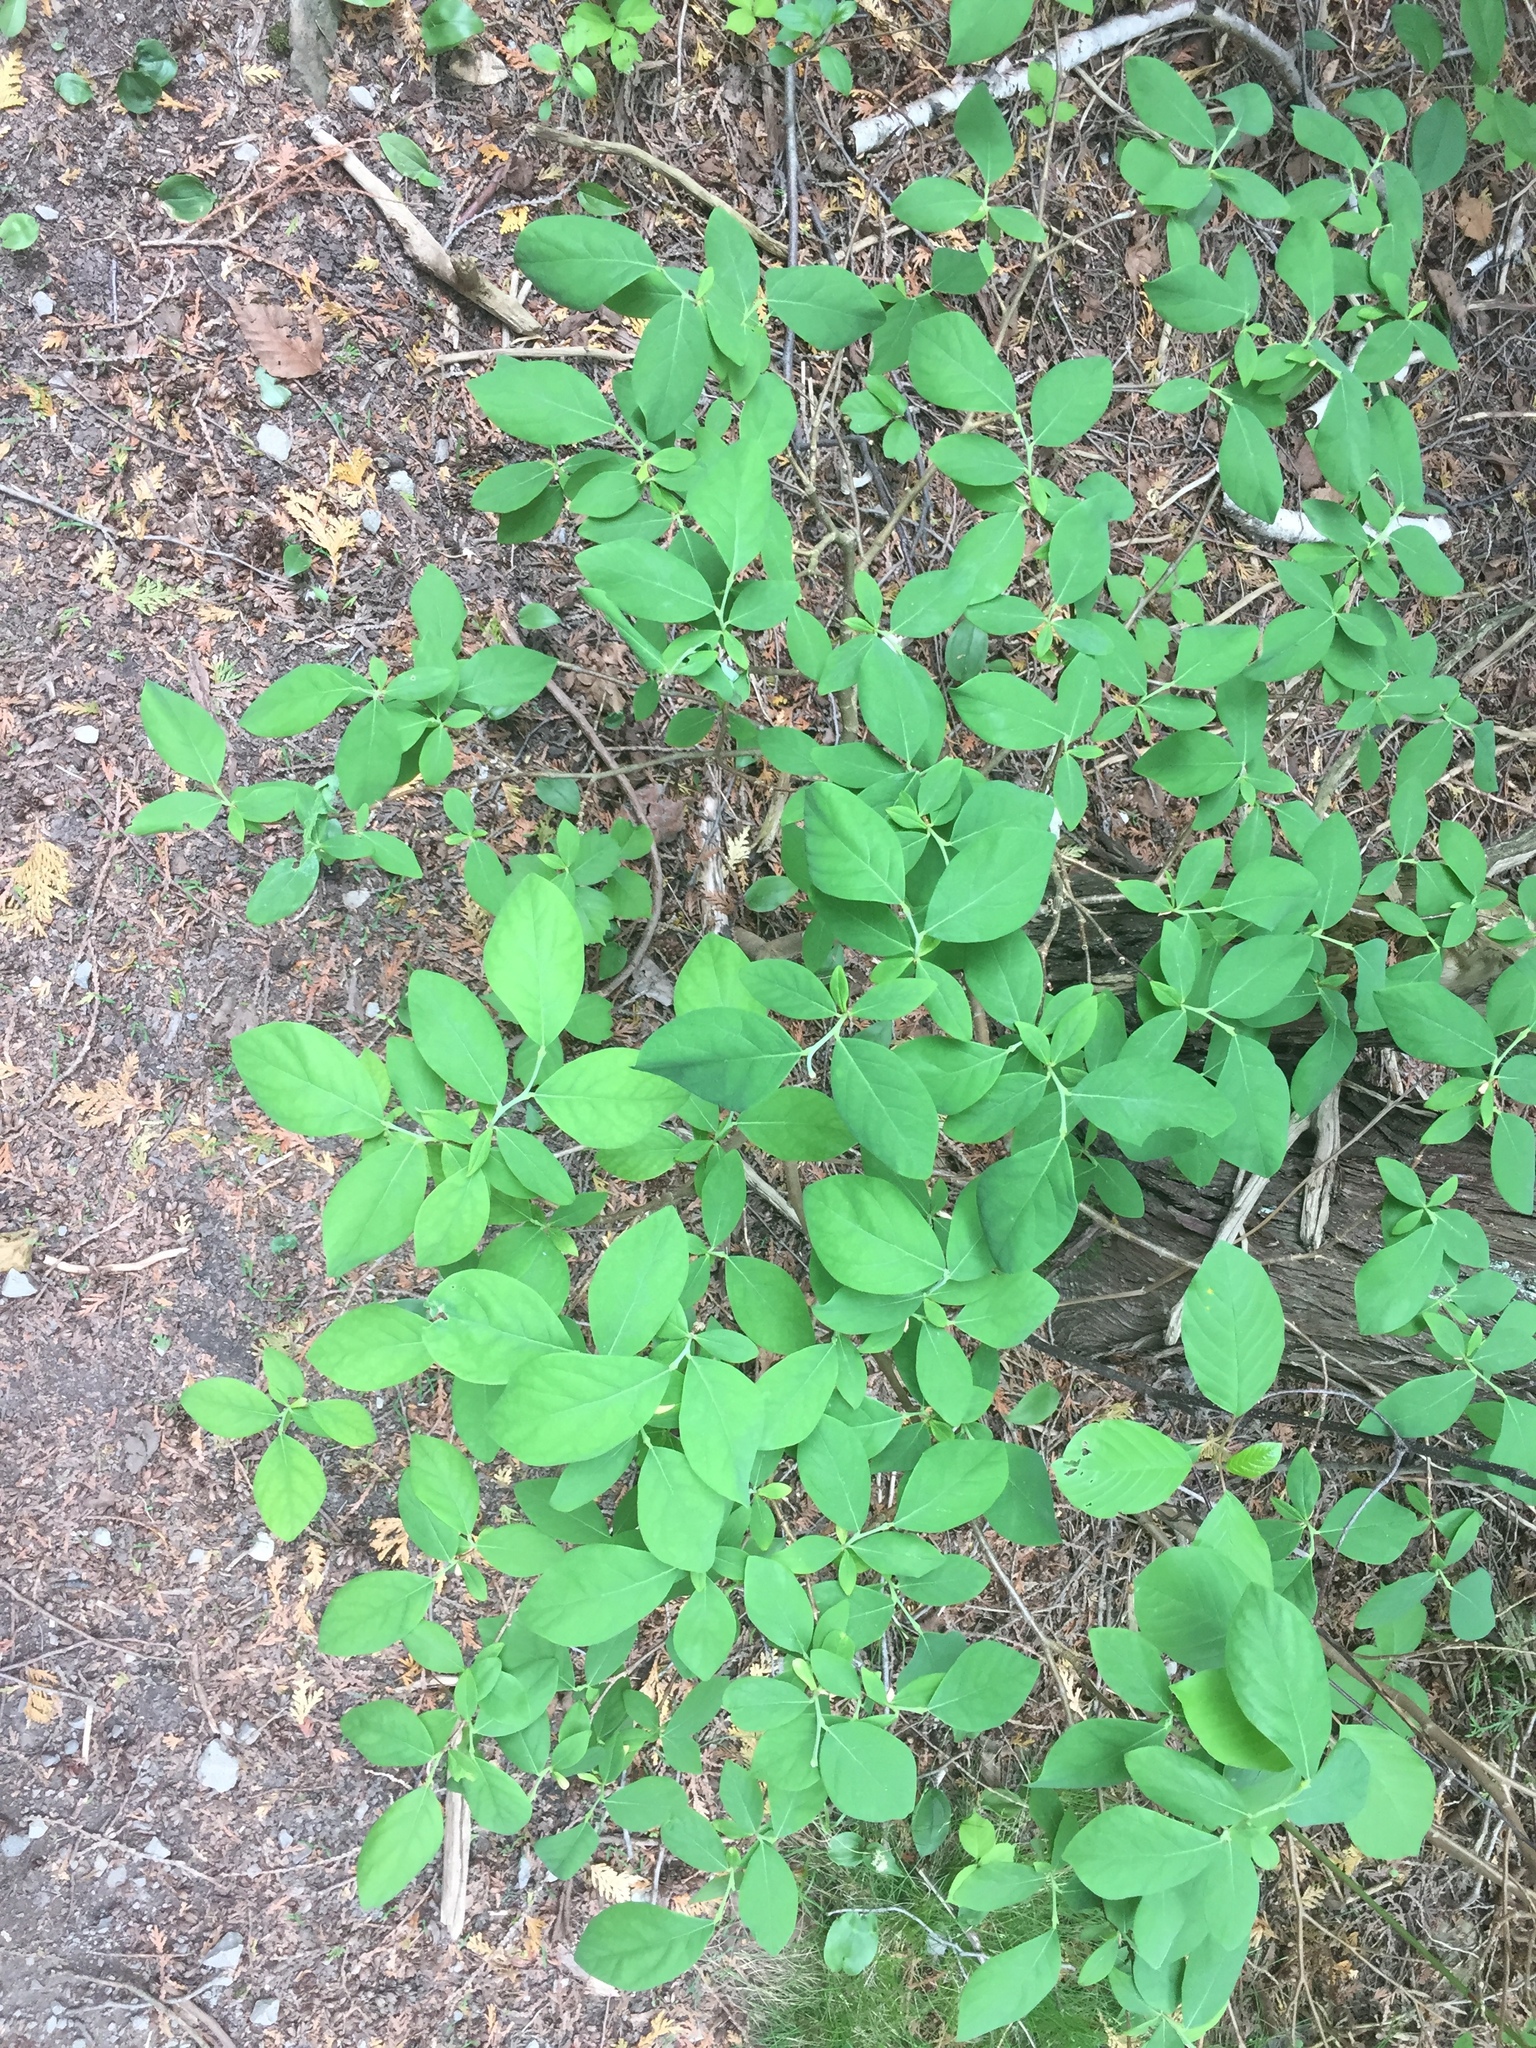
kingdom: Plantae
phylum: Tracheophyta
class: Magnoliopsida
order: Malvales
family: Thymelaeaceae
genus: Dirca
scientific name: Dirca palustris
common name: Leatherwood
